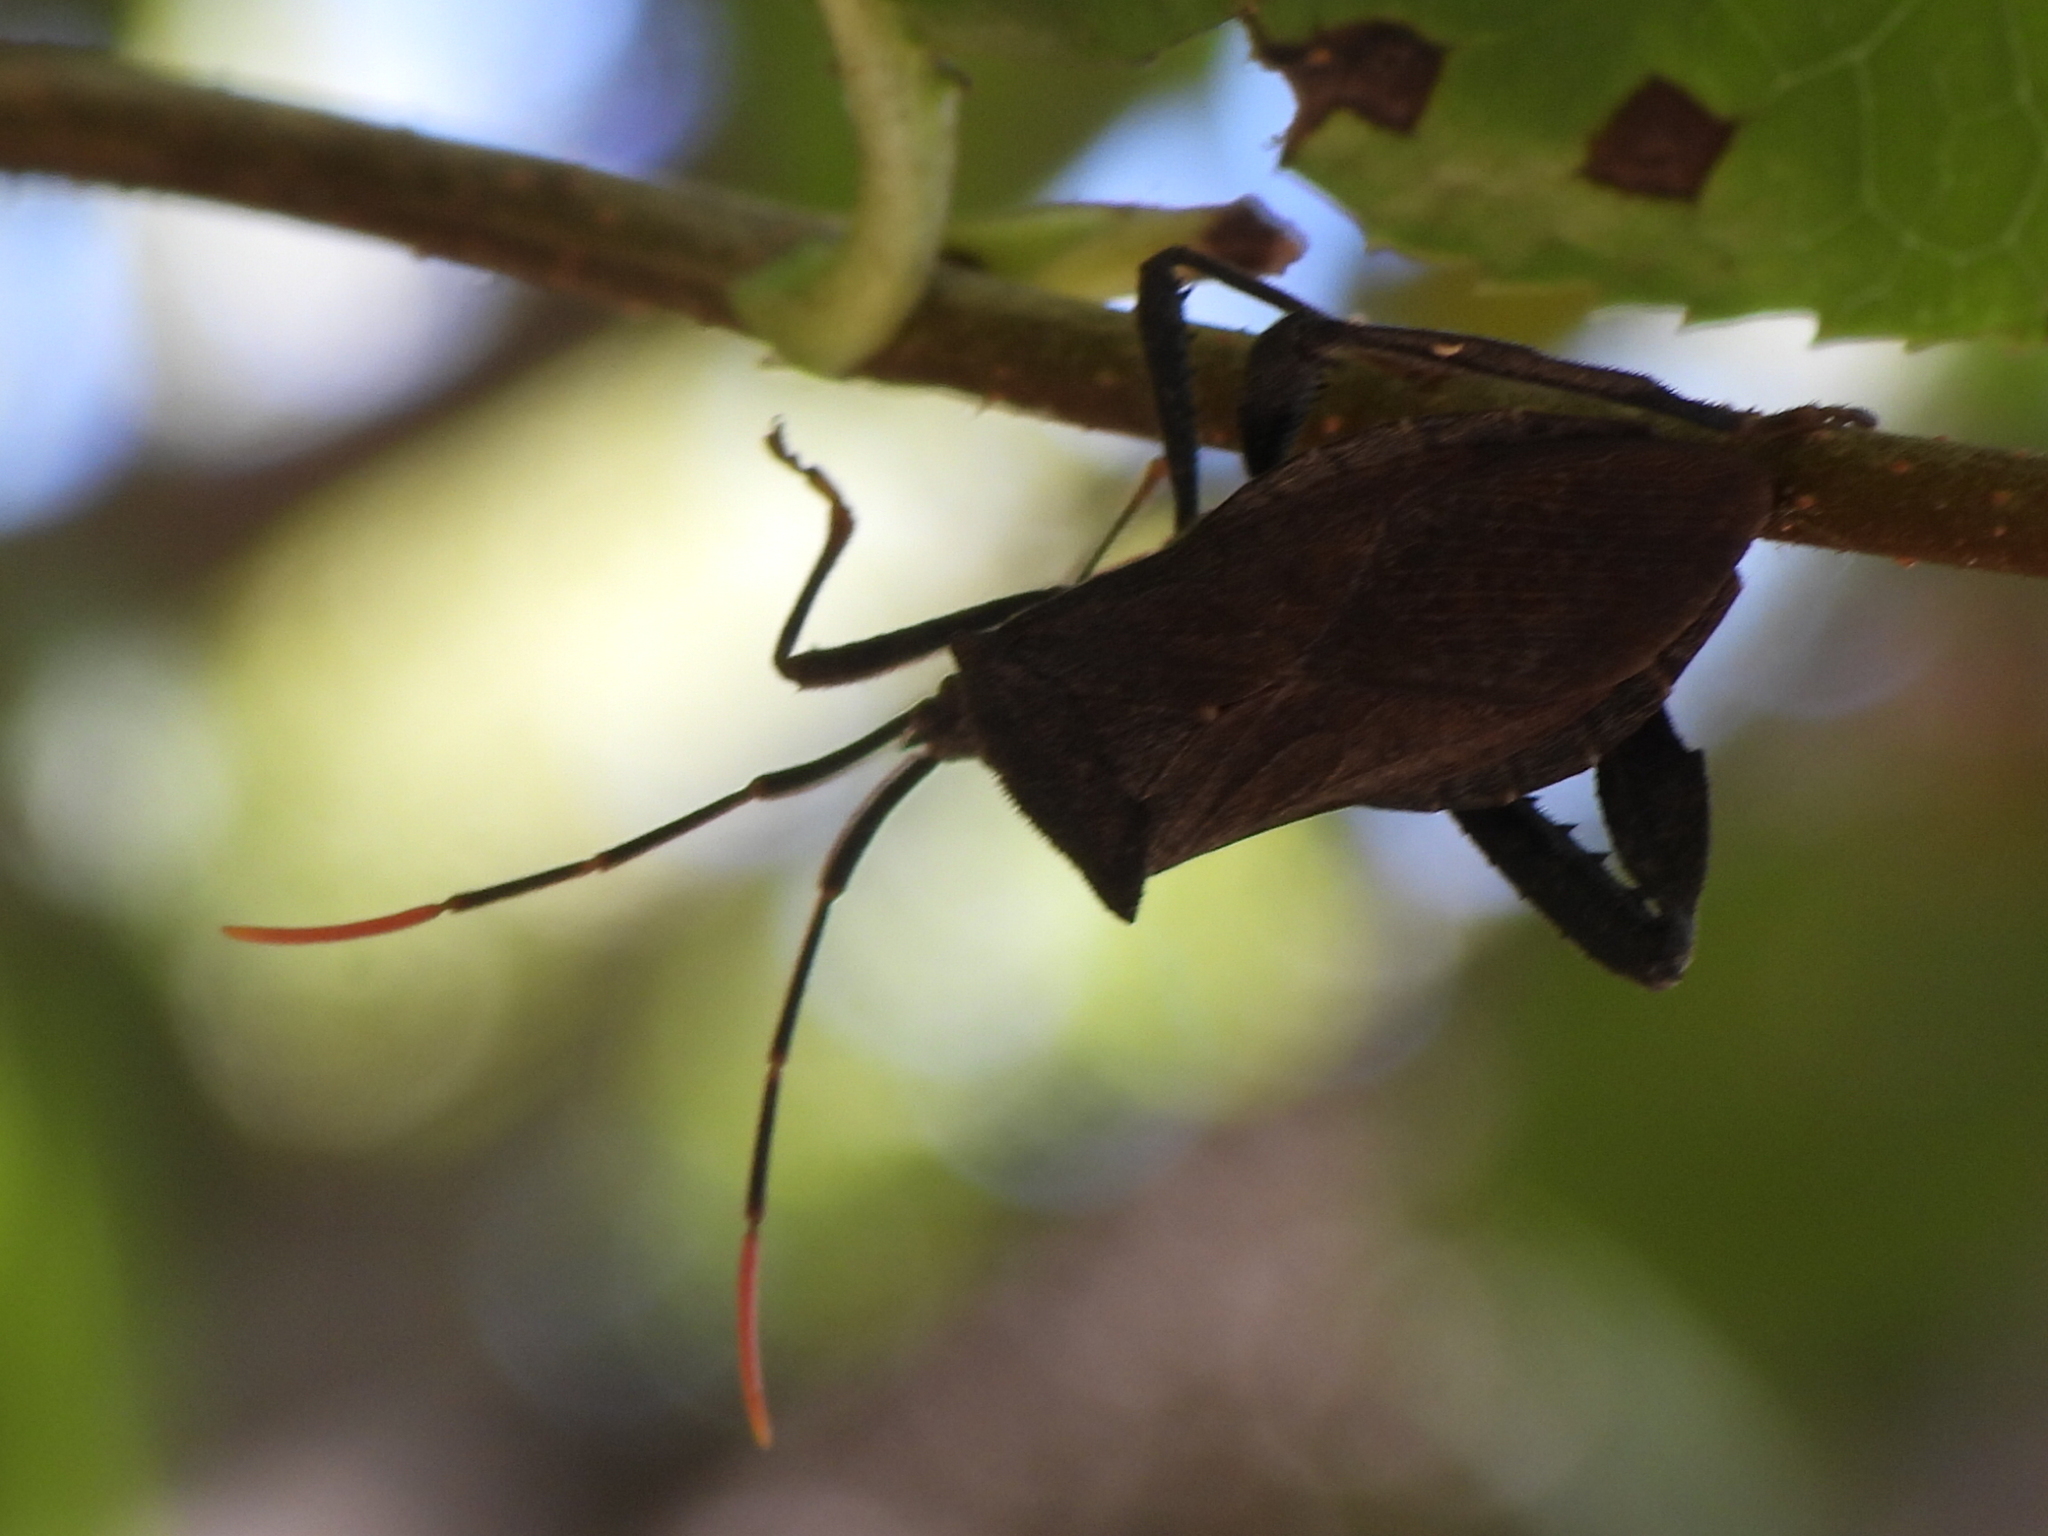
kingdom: Animalia
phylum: Arthropoda
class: Insecta
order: Hemiptera
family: Coreidae
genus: Acanthocephala
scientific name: Acanthocephala terminalis
